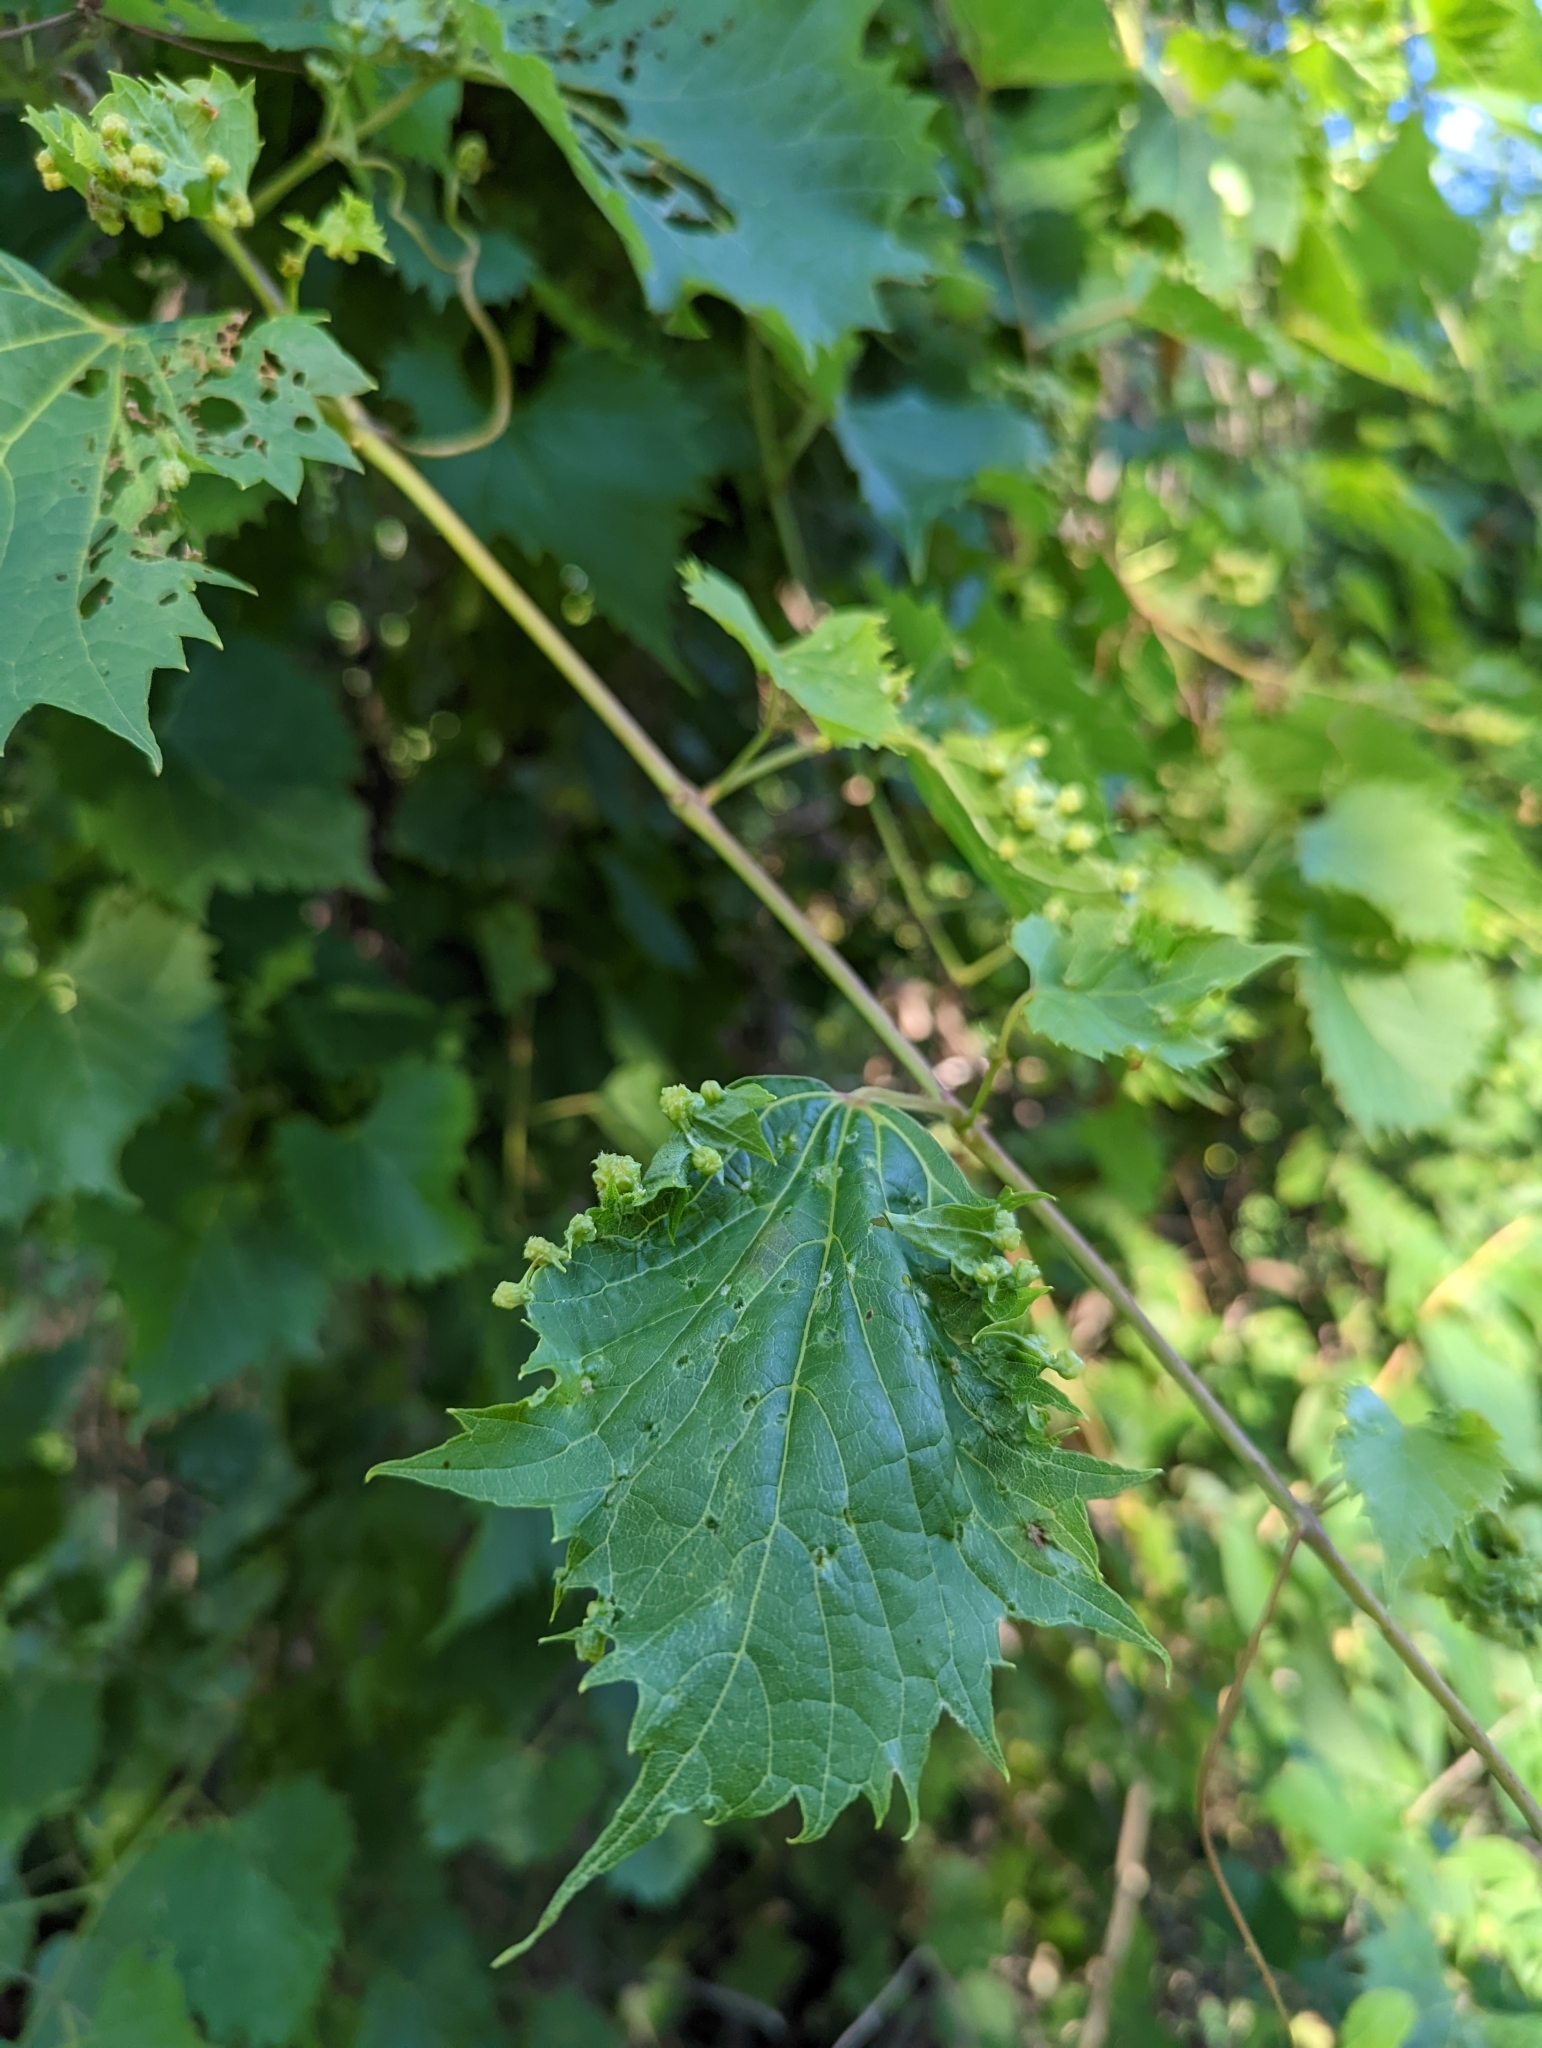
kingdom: Animalia
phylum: Arthropoda
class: Insecta
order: Hemiptera
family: Phylloxeridae
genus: Daktulosphaira
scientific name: Daktulosphaira vitifoliae
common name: Grape phylloxera
